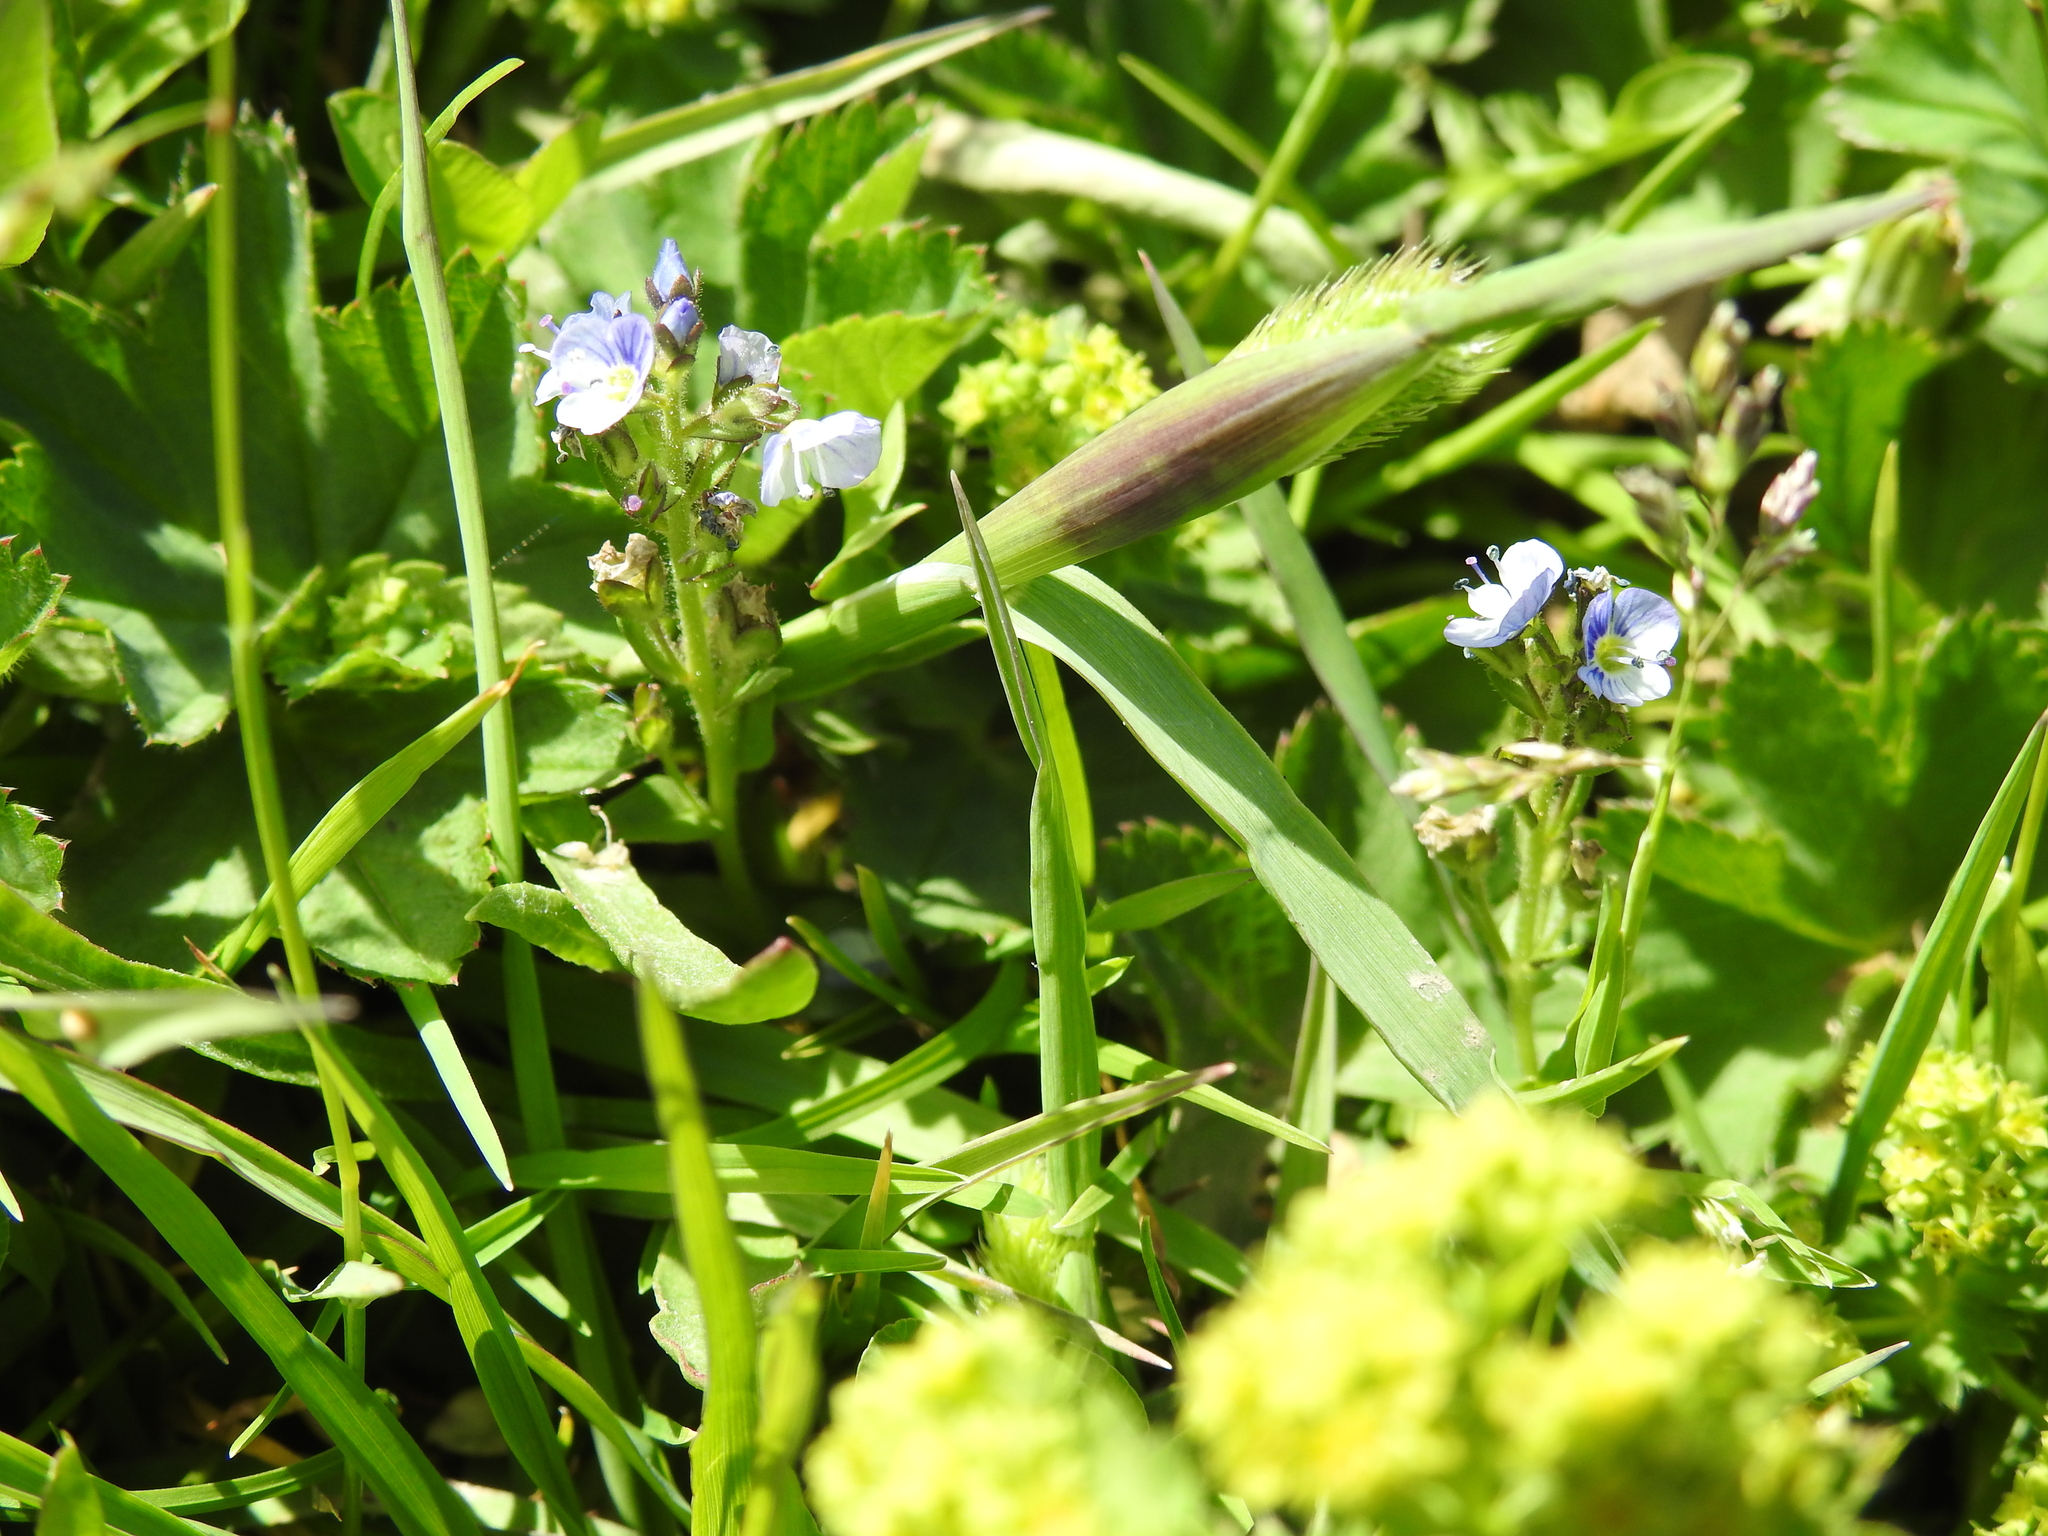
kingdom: Plantae
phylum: Tracheophyta
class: Magnoliopsida
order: Lamiales
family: Plantaginaceae
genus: Veronica
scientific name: Veronica serpyllifolia
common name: Thyme-leaved speedwell
